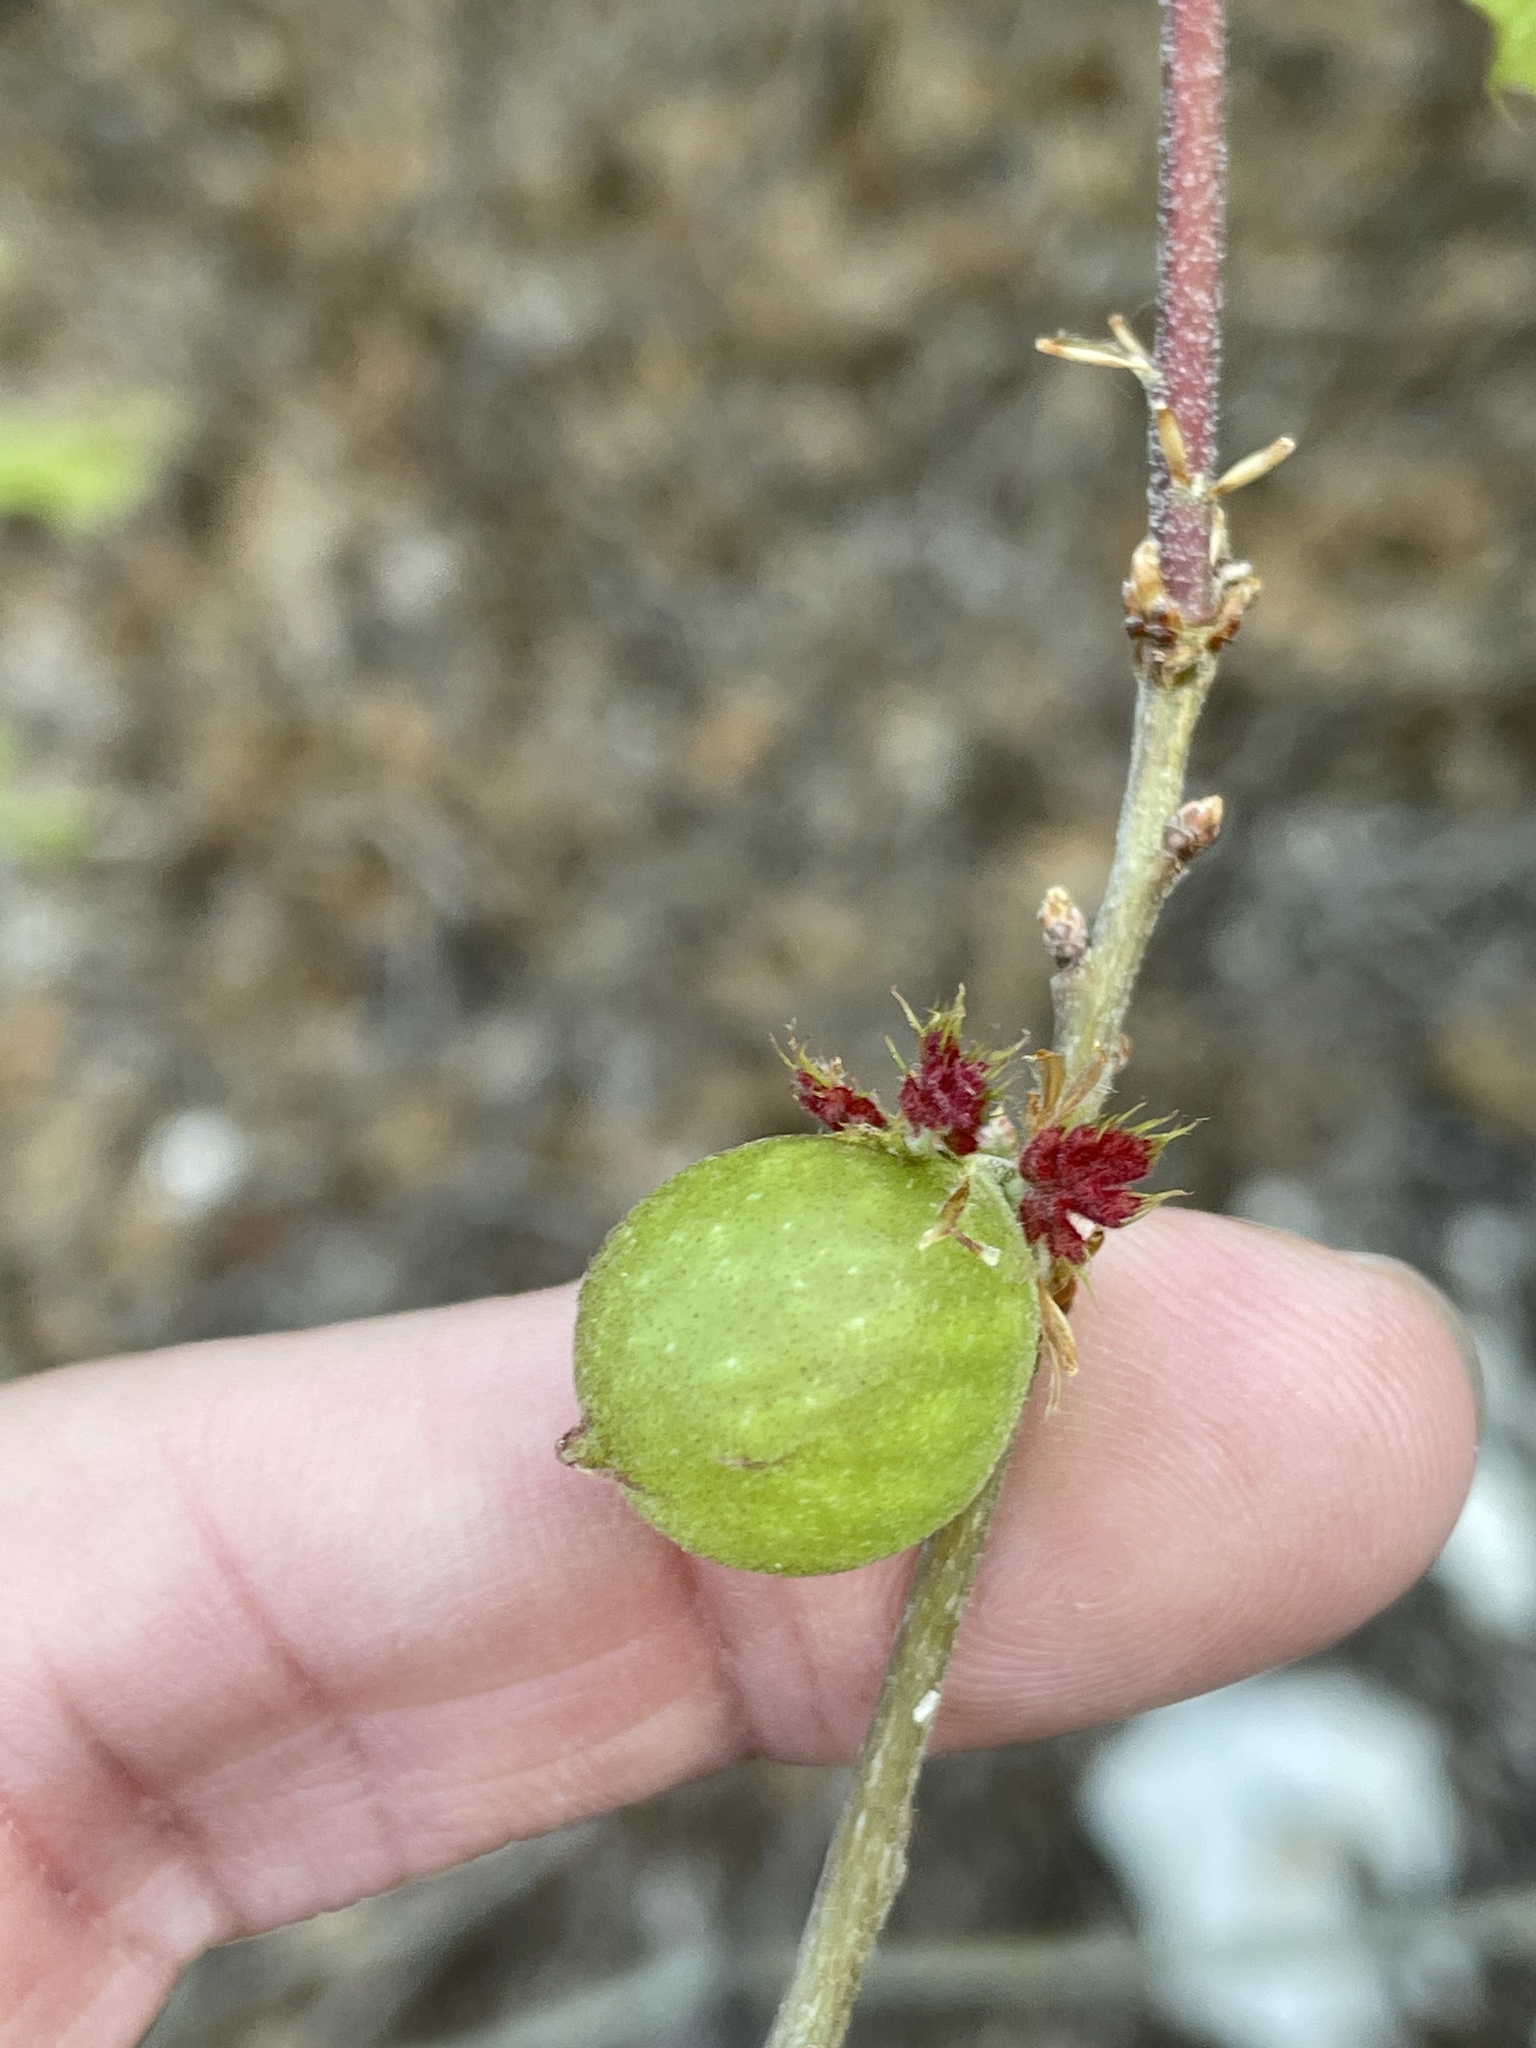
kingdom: Animalia
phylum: Arthropoda
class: Insecta
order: Hymenoptera
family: Cynipidae
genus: Dryocosmus
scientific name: Dryocosmus quercuspalustris
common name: Succulent oak gall wasp
